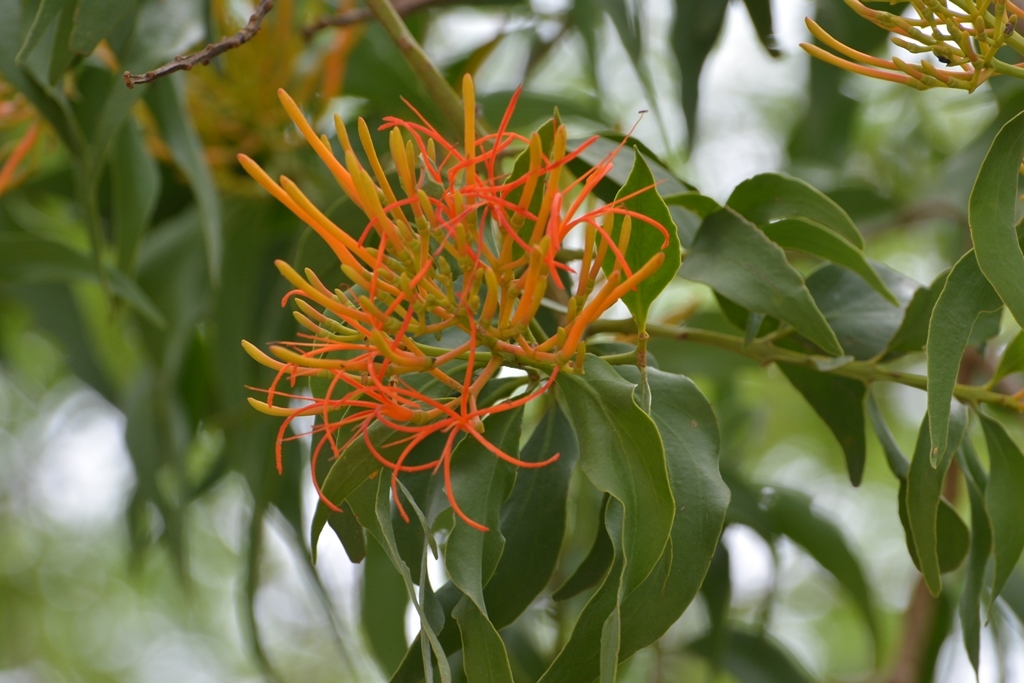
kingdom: Plantae
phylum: Tracheophyta
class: Magnoliopsida
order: Santalales
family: Loranthaceae
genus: Psittacanthus
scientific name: Psittacanthus schiedeanus
